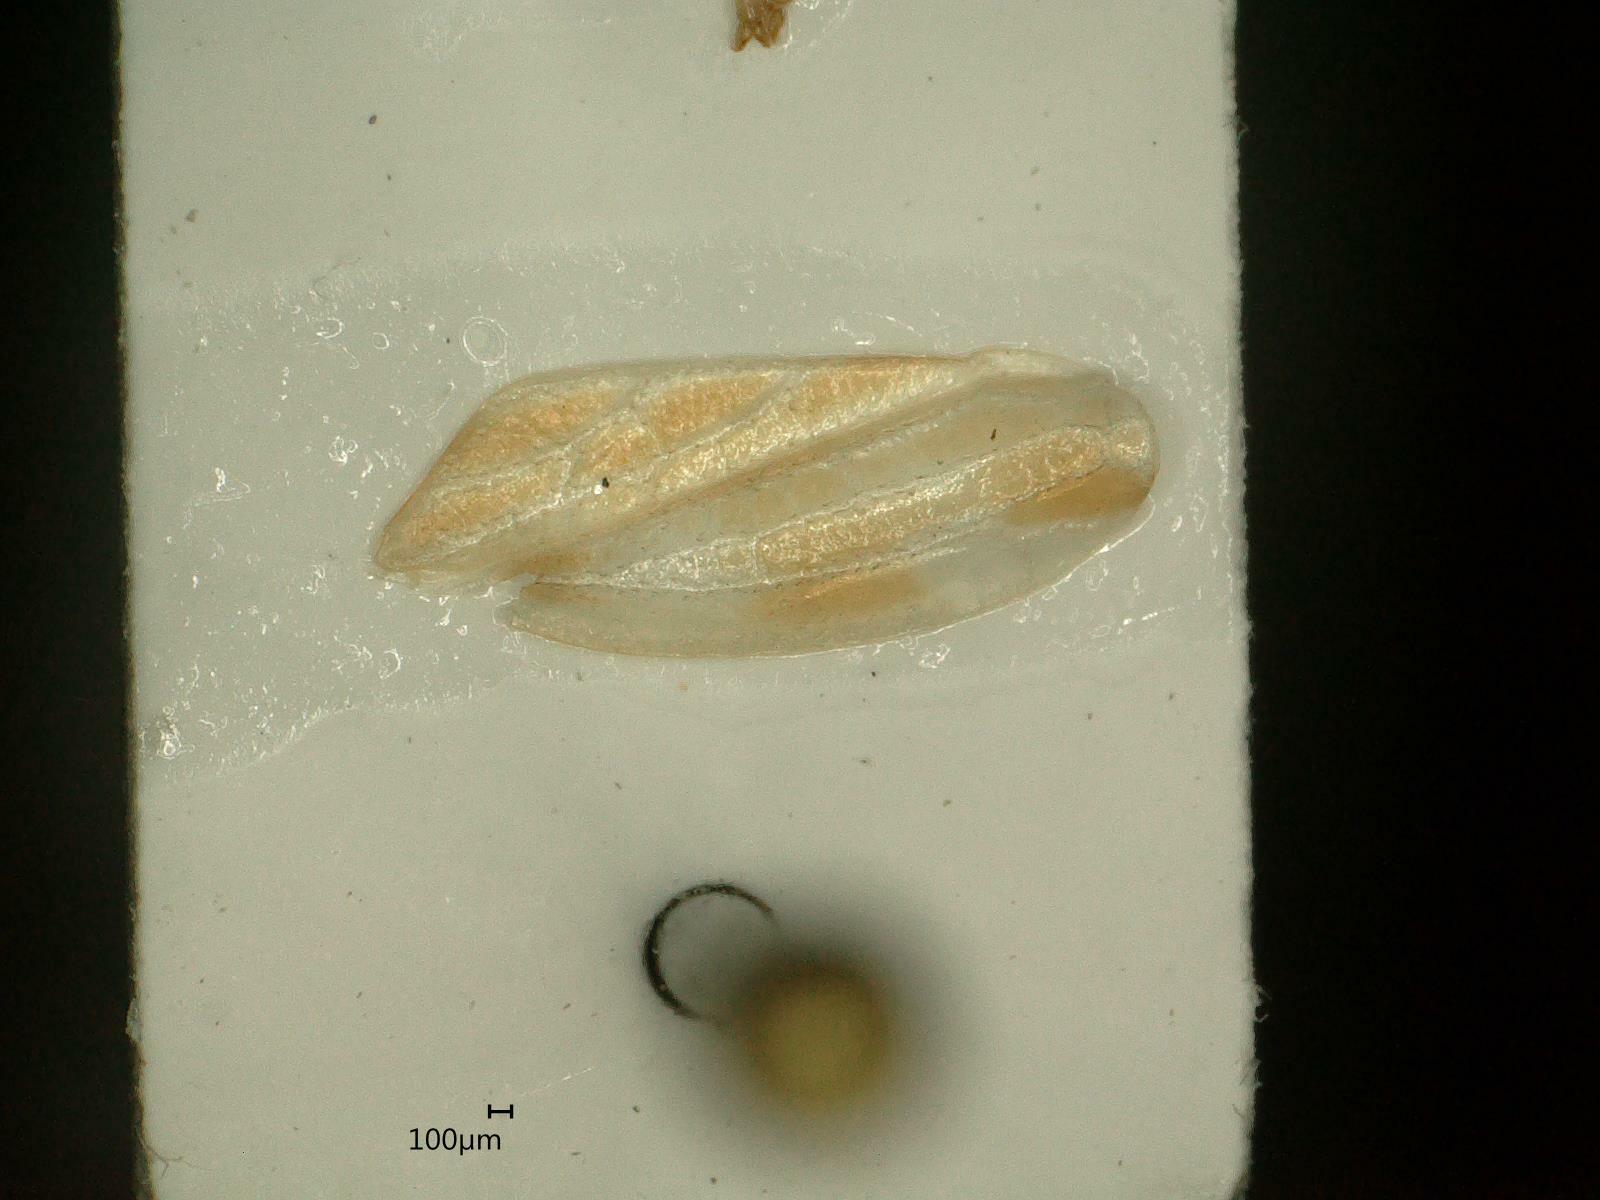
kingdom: Animalia
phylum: Arthropoda
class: Insecta
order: Hemiptera
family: Cicadellidae
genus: Evacanthus
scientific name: Evacanthus acuminatus
